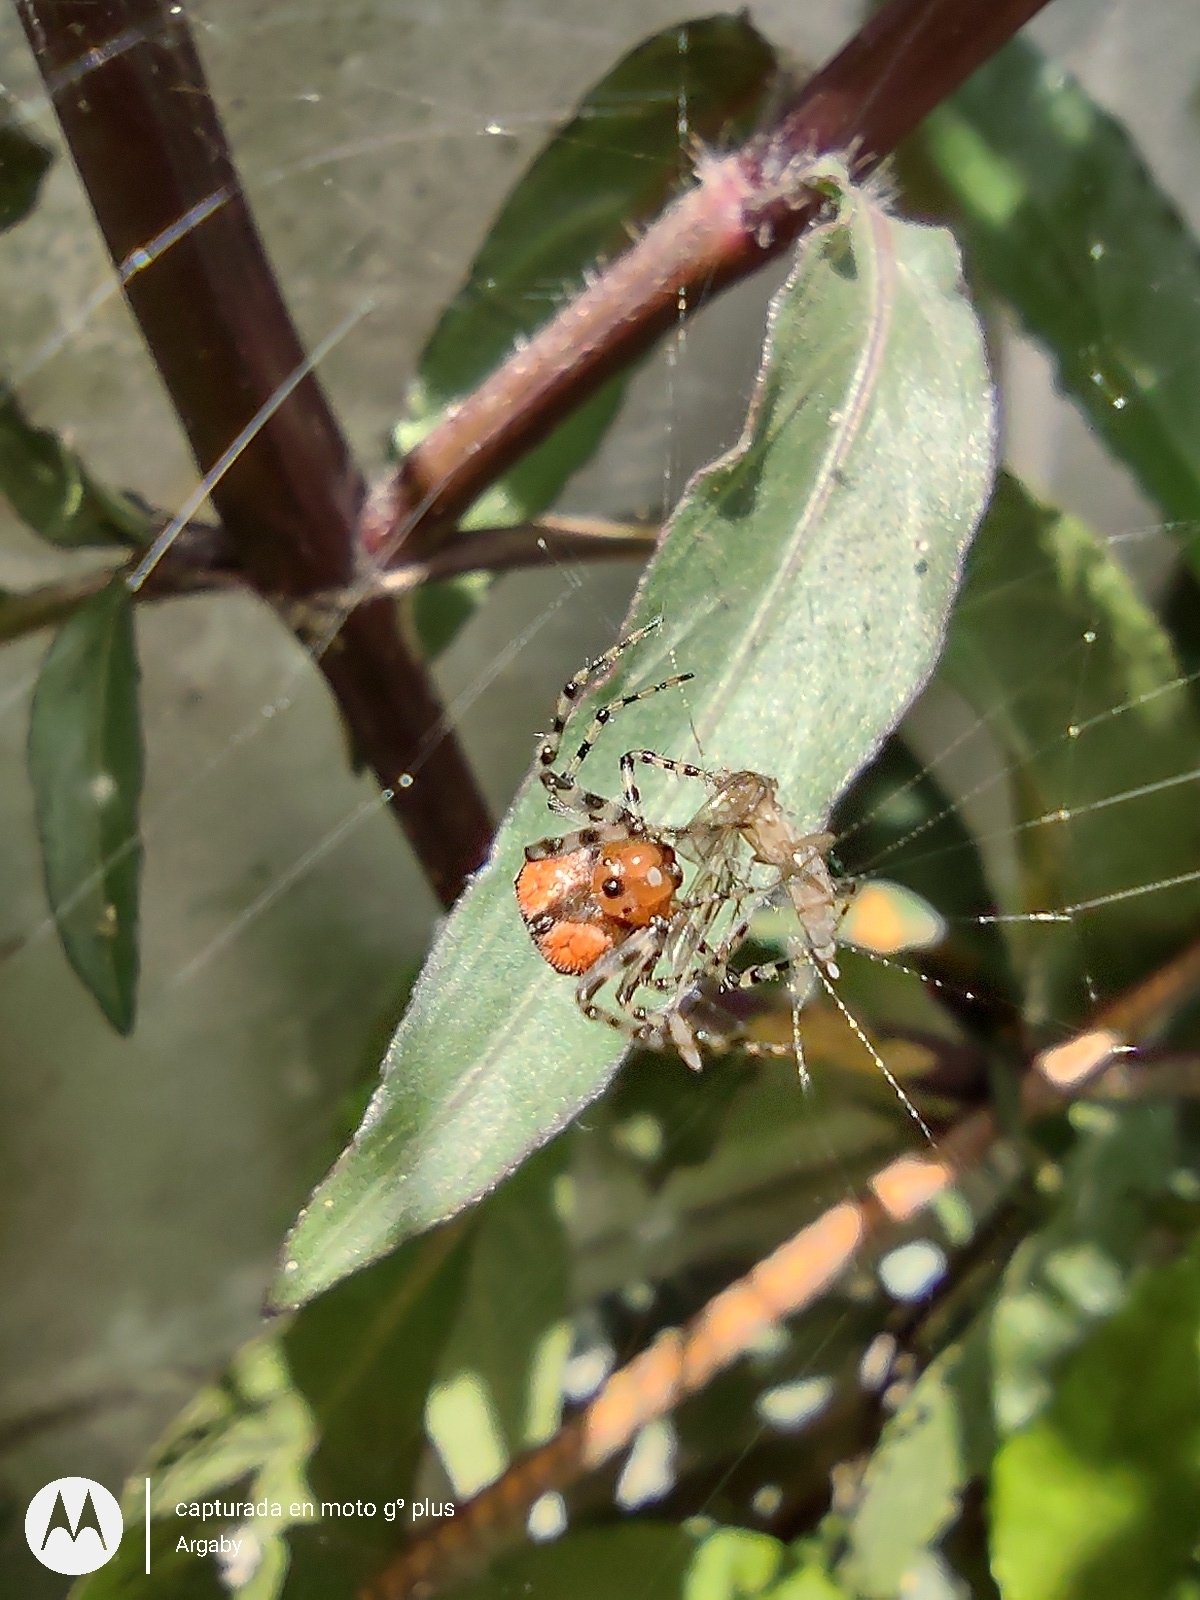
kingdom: Animalia
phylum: Arthropoda
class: Arachnida
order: Araneae
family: Araneidae
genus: Alpaida
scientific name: Alpaida gallardoi
